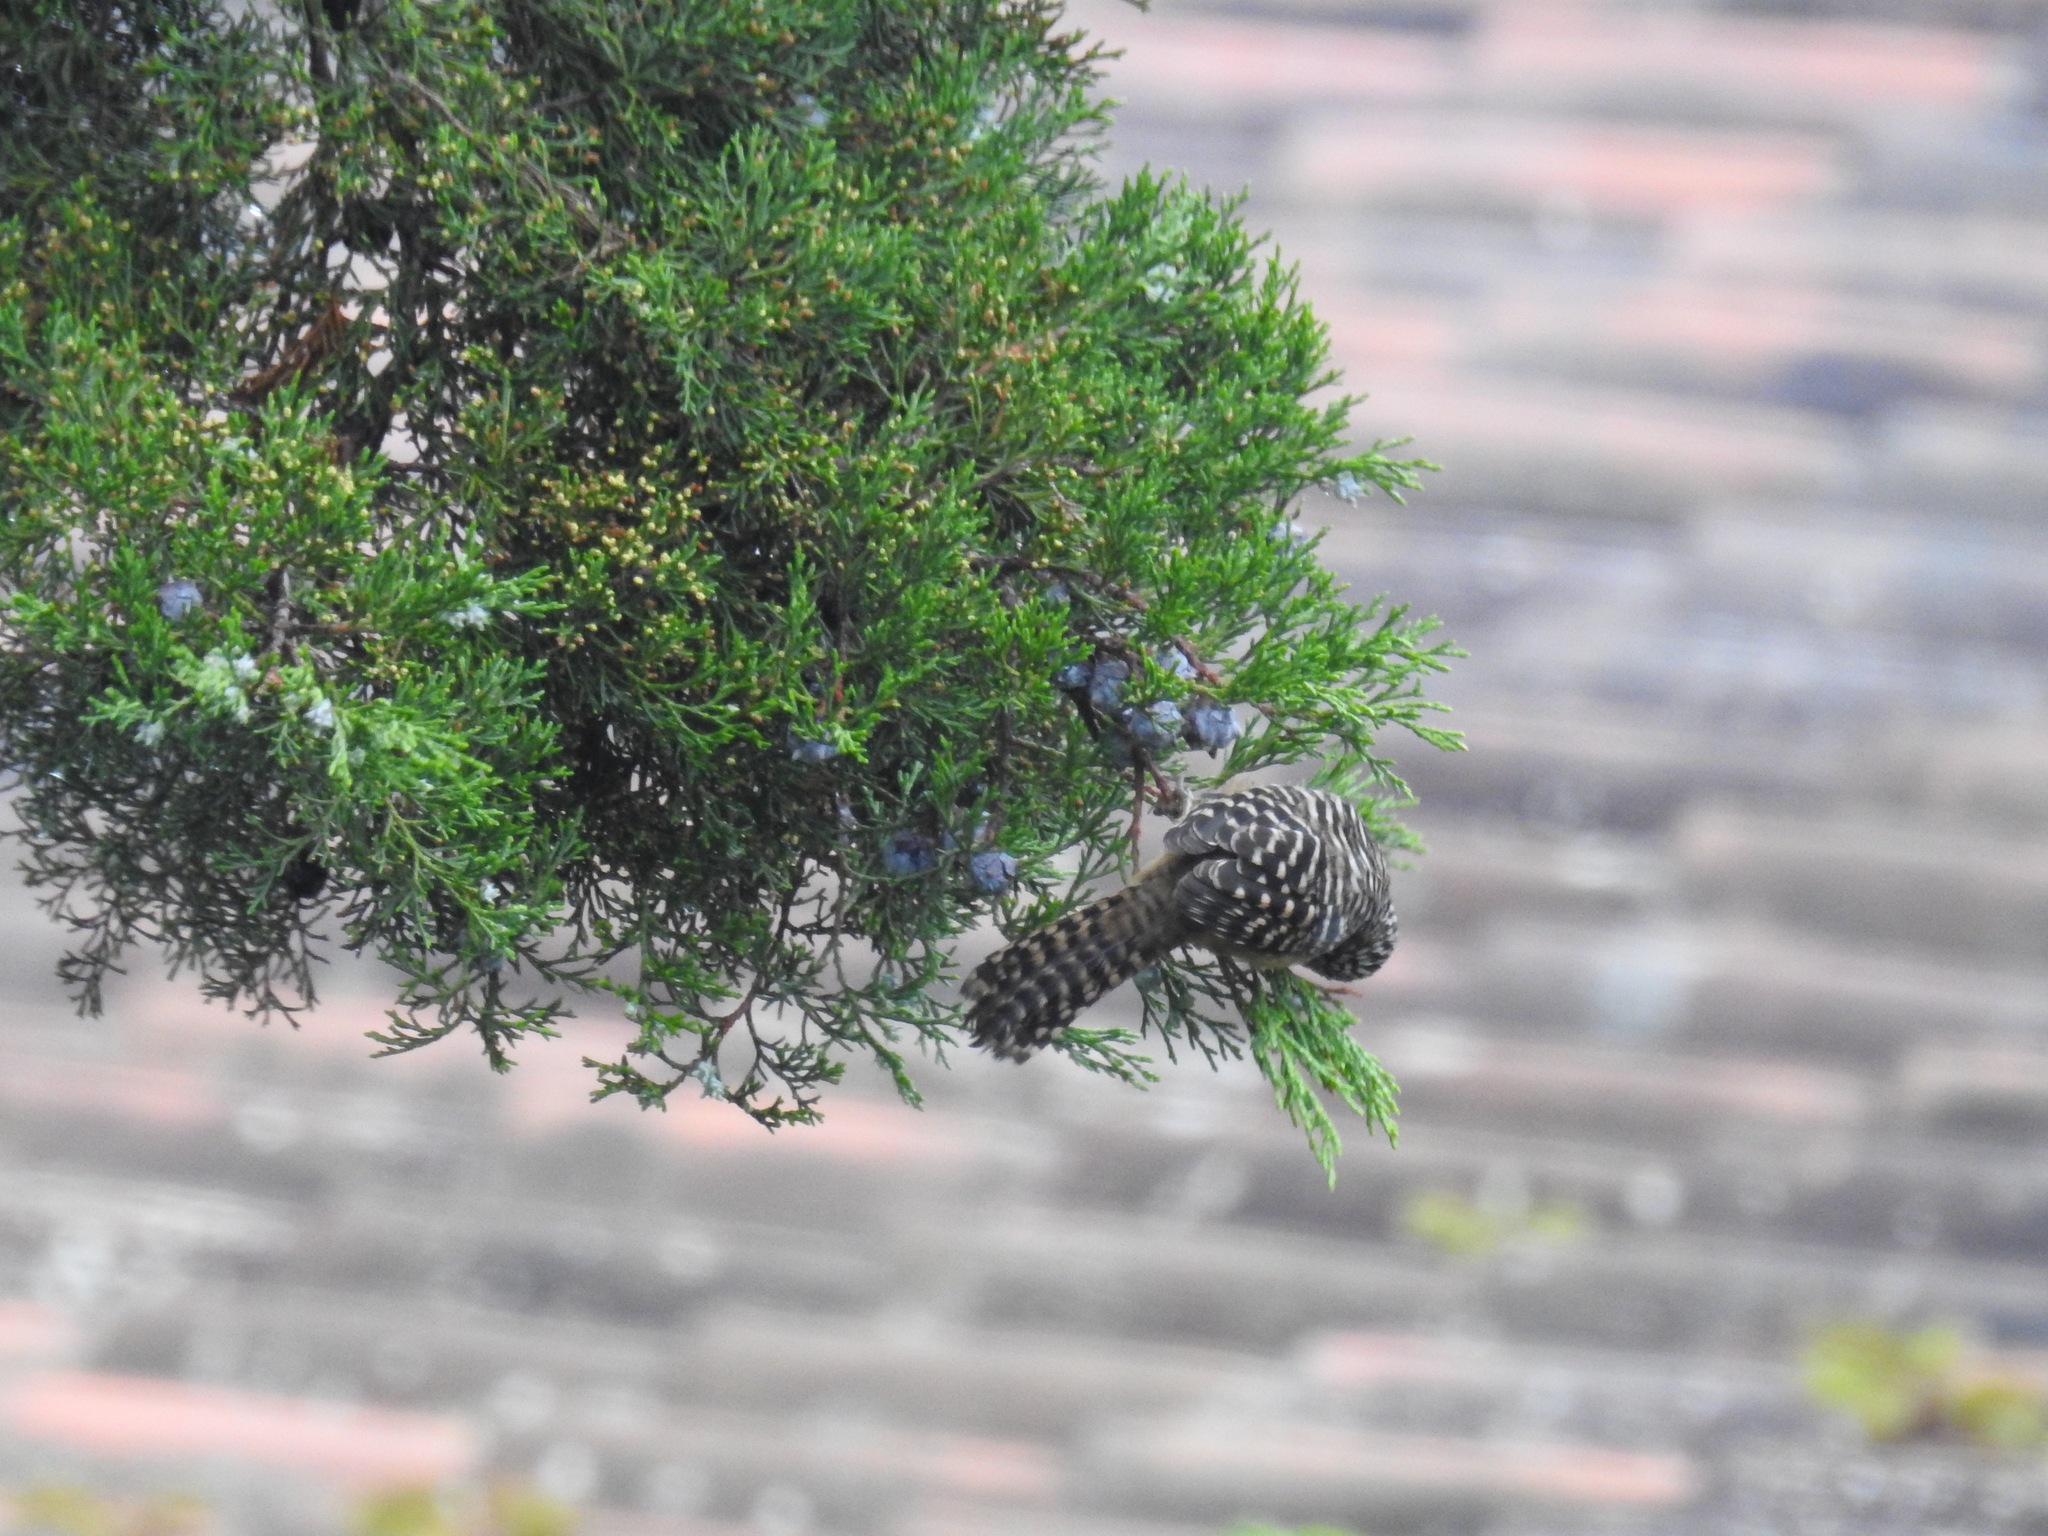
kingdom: Animalia
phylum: Chordata
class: Aves
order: Passeriformes
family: Troglodytidae
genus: Campylorhynchus
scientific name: Campylorhynchus zonatus
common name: Band-backed wren
